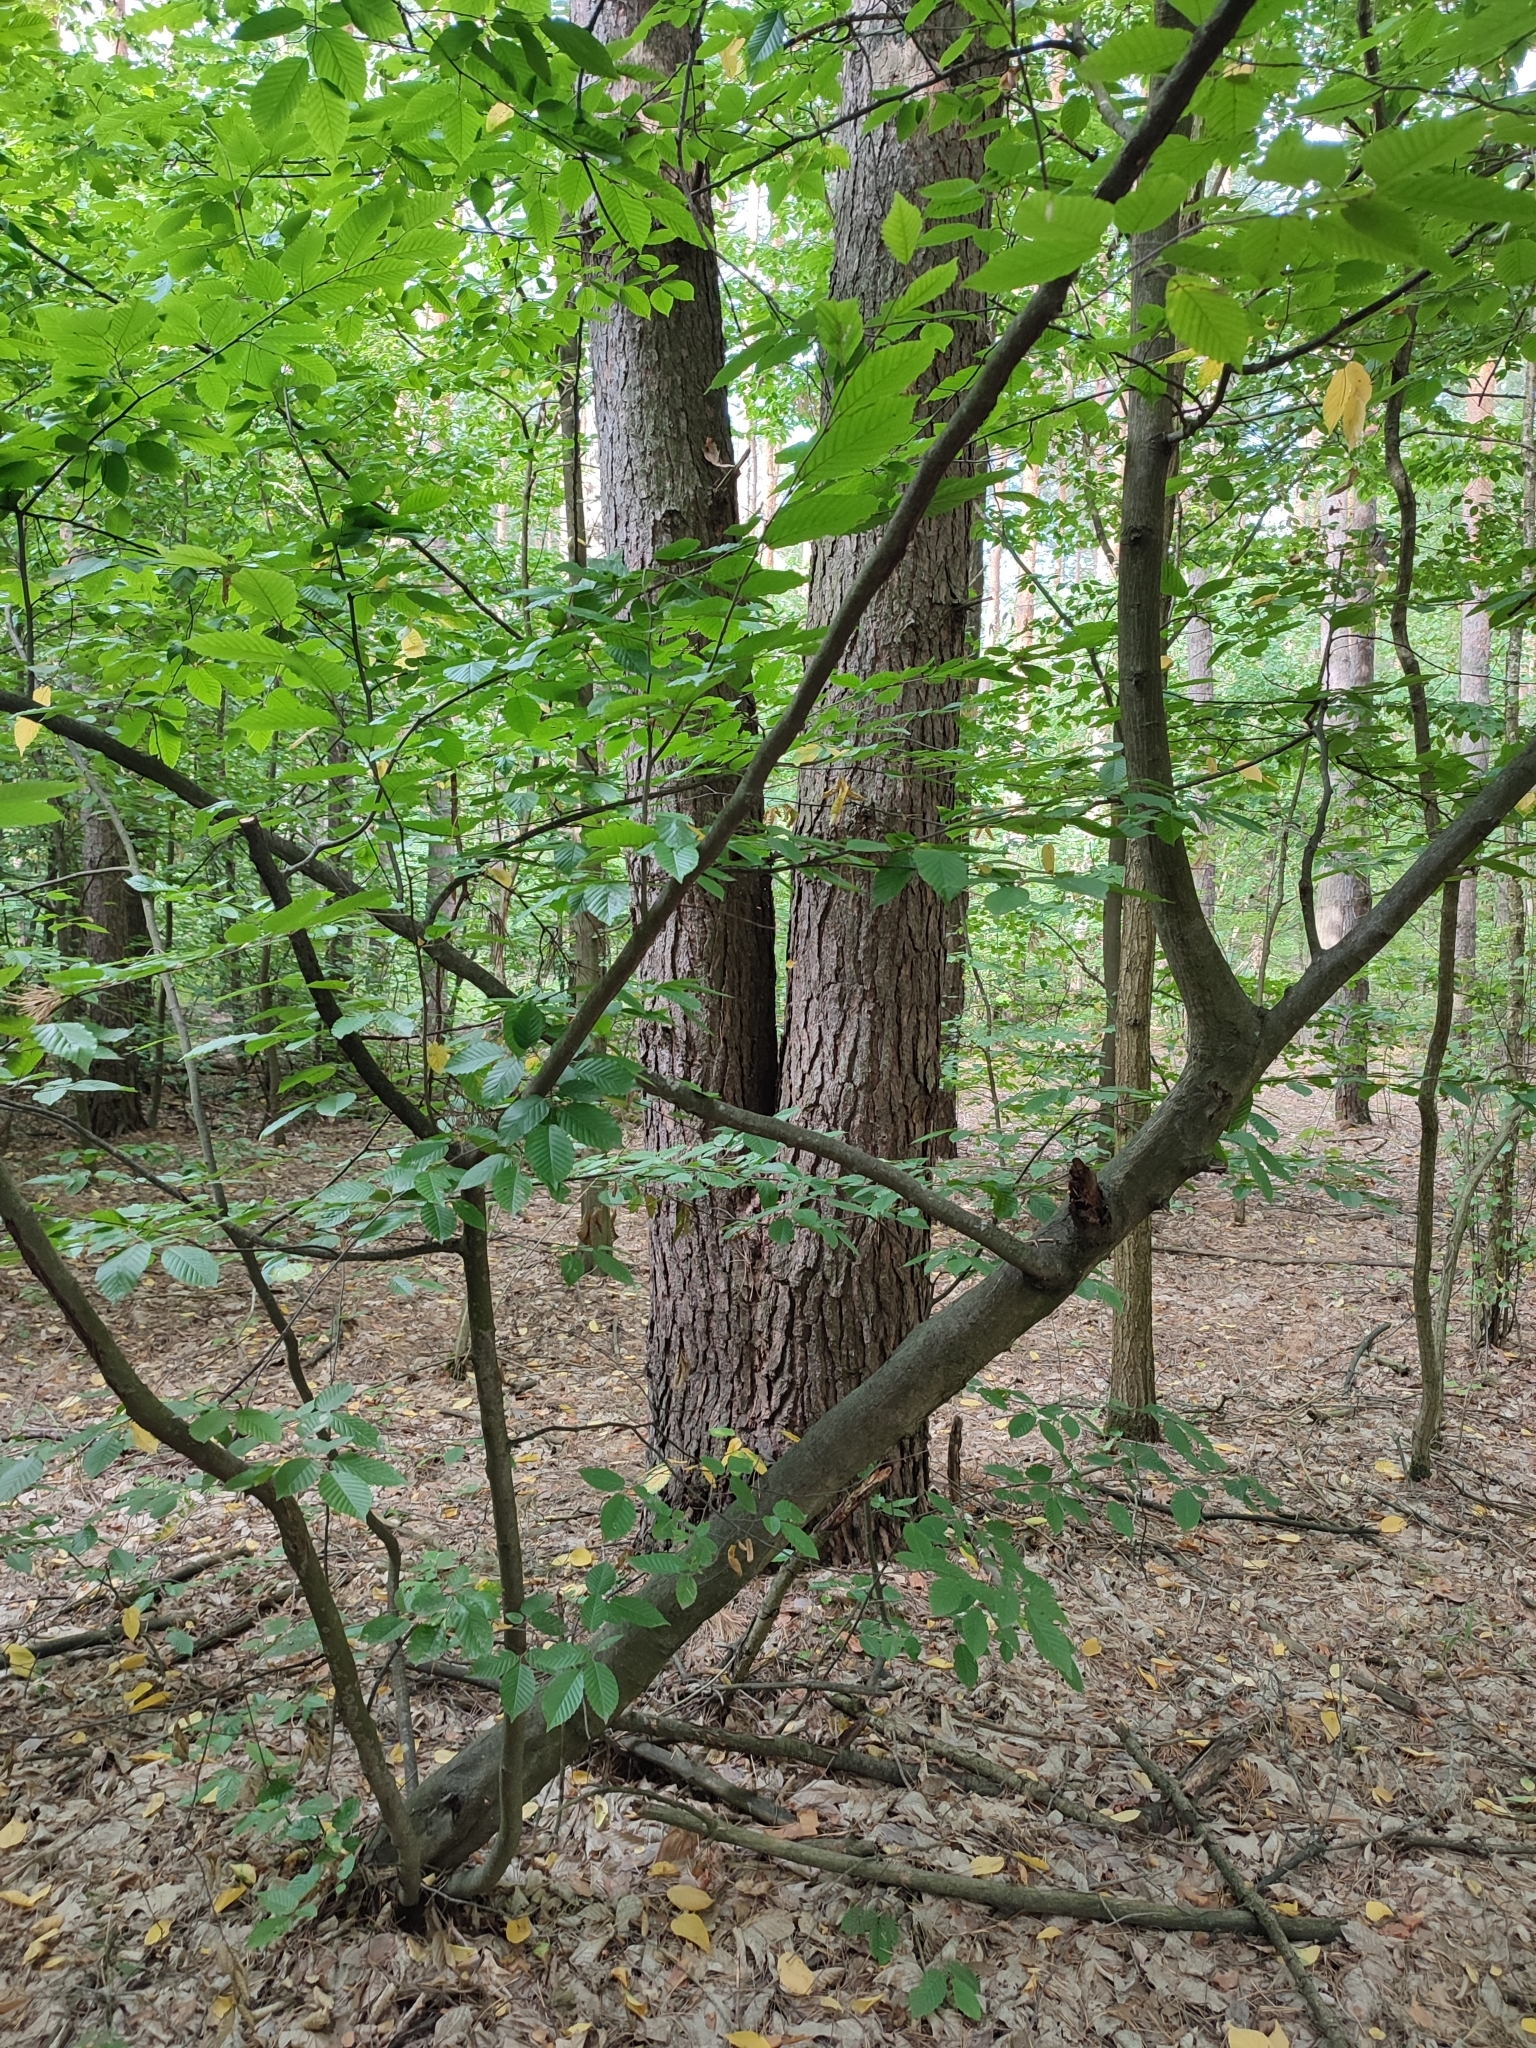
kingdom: Plantae
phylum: Tracheophyta
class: Magnoliopsida
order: Fagales
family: Betulaceae
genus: Carpinus
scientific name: Carpinus betulus
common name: Hornbeam
